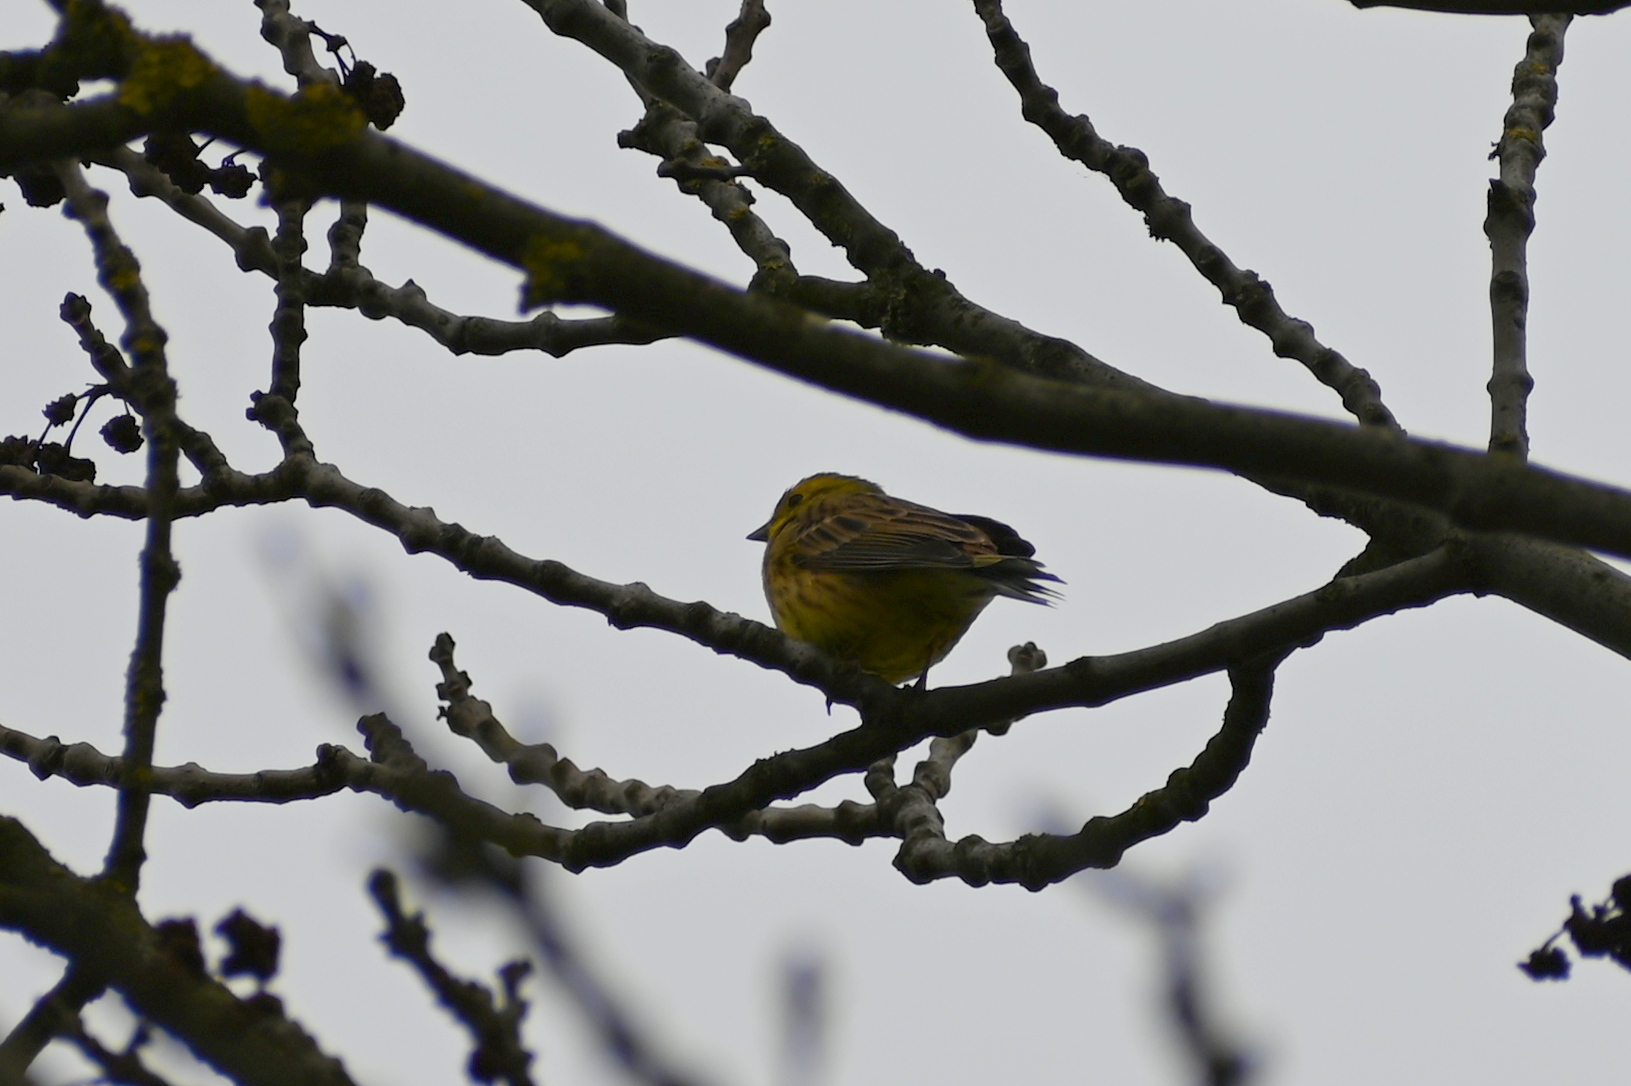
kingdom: Animalia
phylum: Chordata
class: Aves
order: Passeriformes
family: Emberizidae
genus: Emberiza
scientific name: Emberiza citrinella
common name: Yellowhammer
